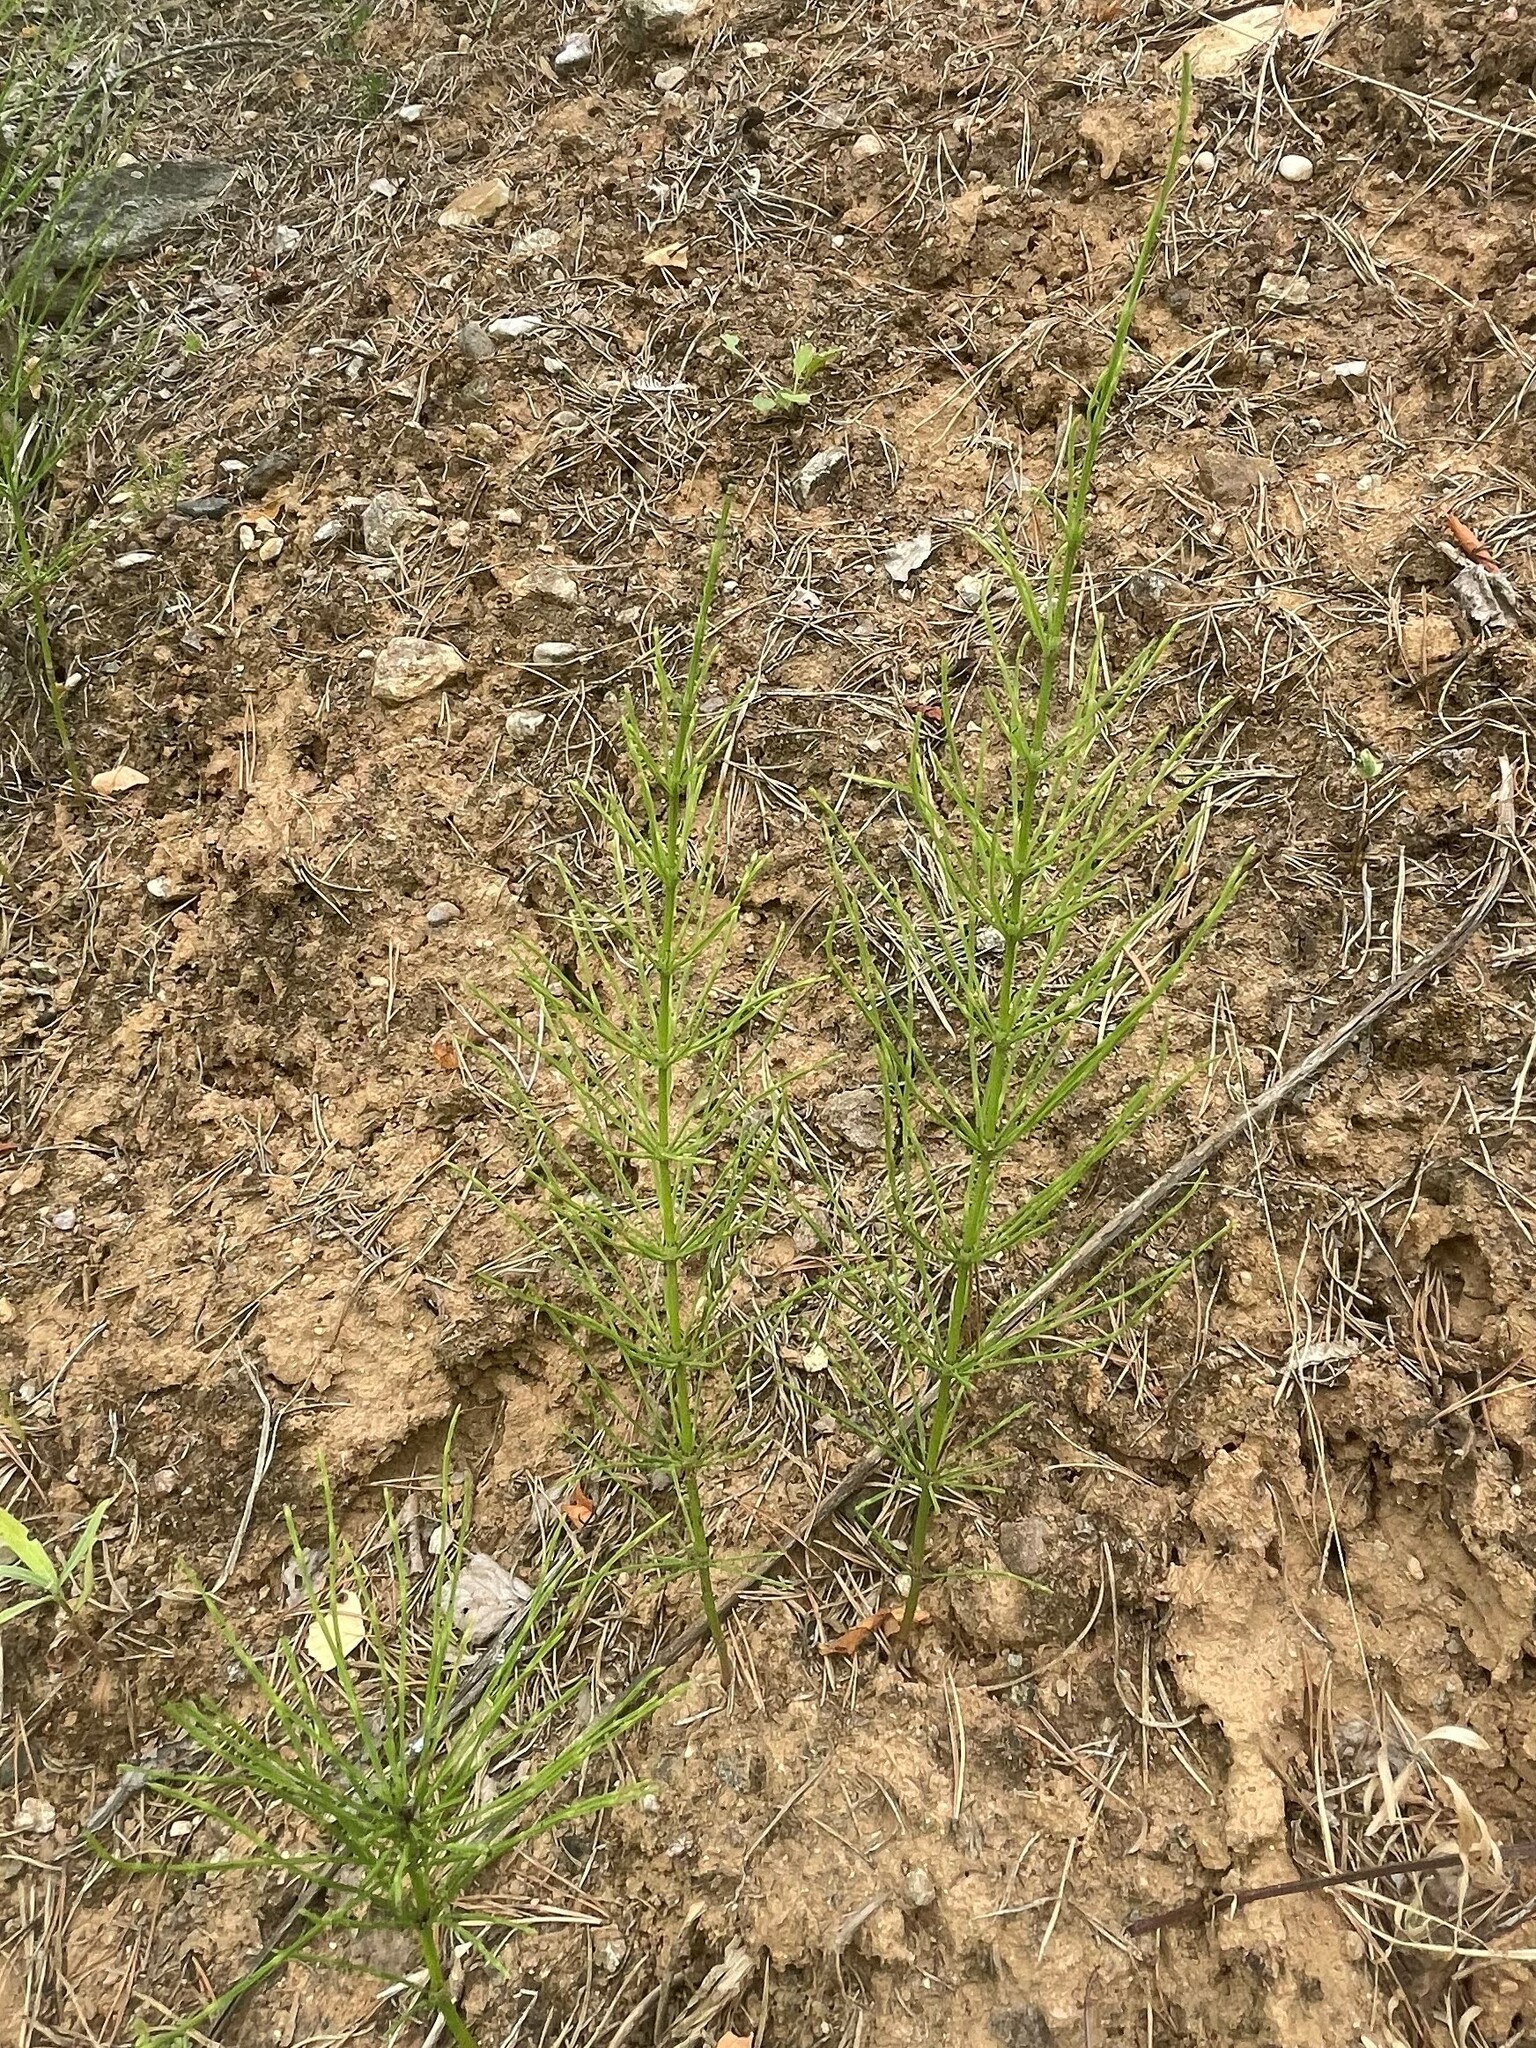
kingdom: Plantae
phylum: Tracheophyta
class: Polypodiopsida
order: Equisetales
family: Equisetaceae
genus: Equisetum
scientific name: Equisetum arvense
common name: Field horsetail
